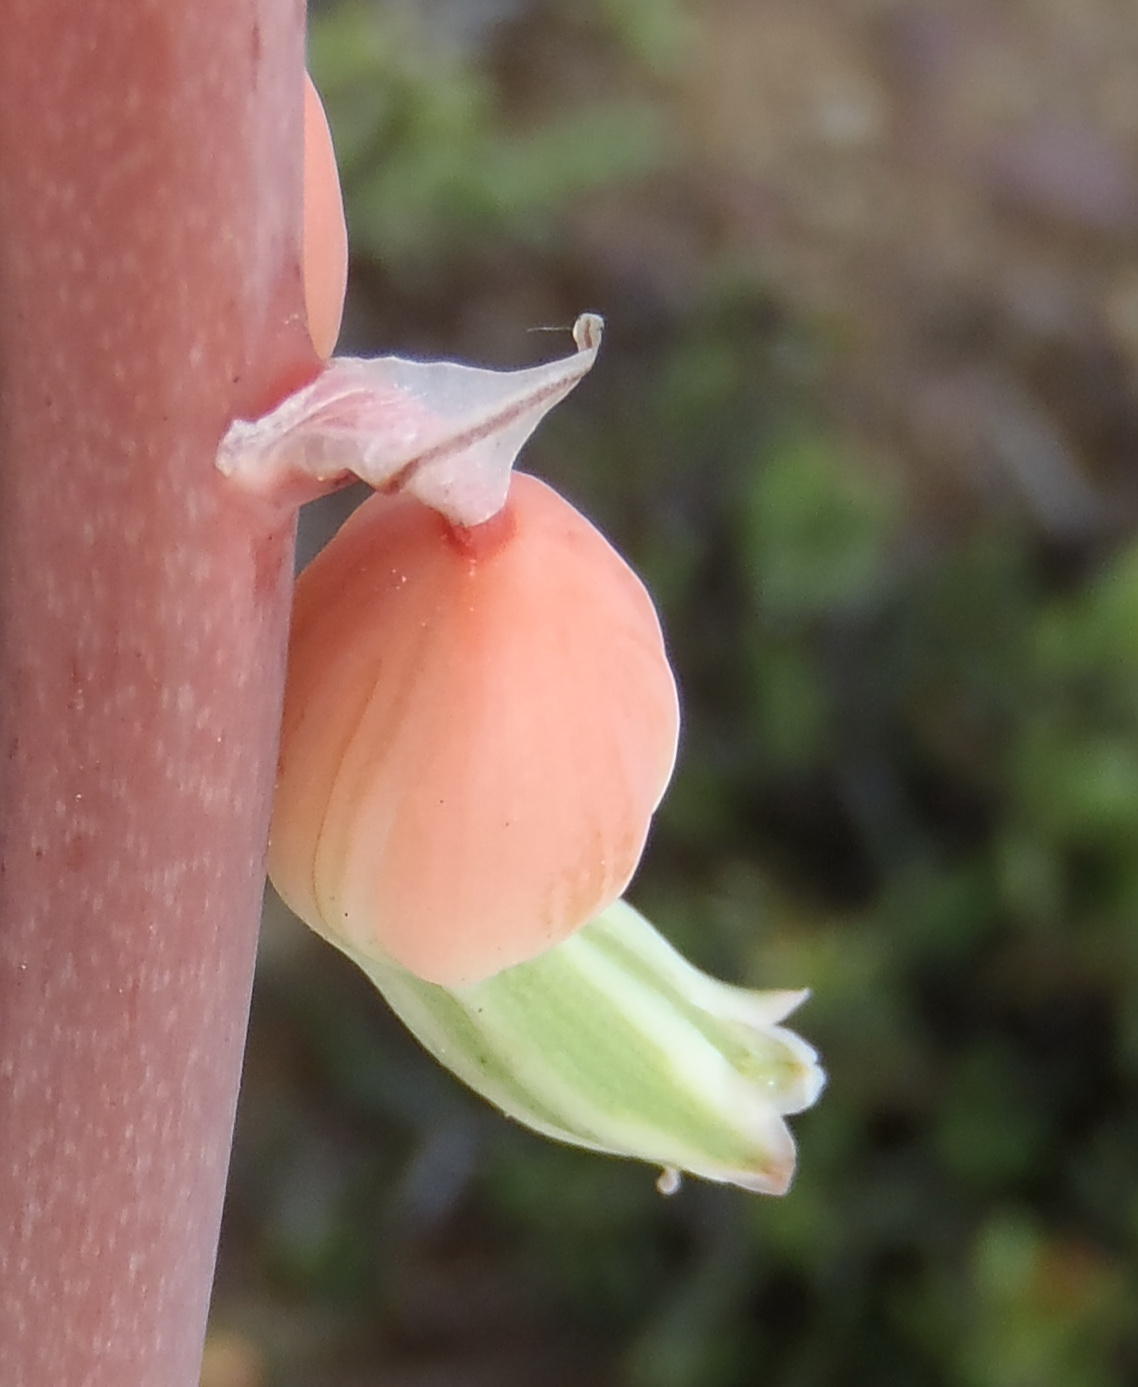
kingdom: Plantae
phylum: Tracheophyta
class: Liliopsida
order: Asparagales
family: Asphodelaceae
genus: Gasteria
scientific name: Gasteria brachyphylla
